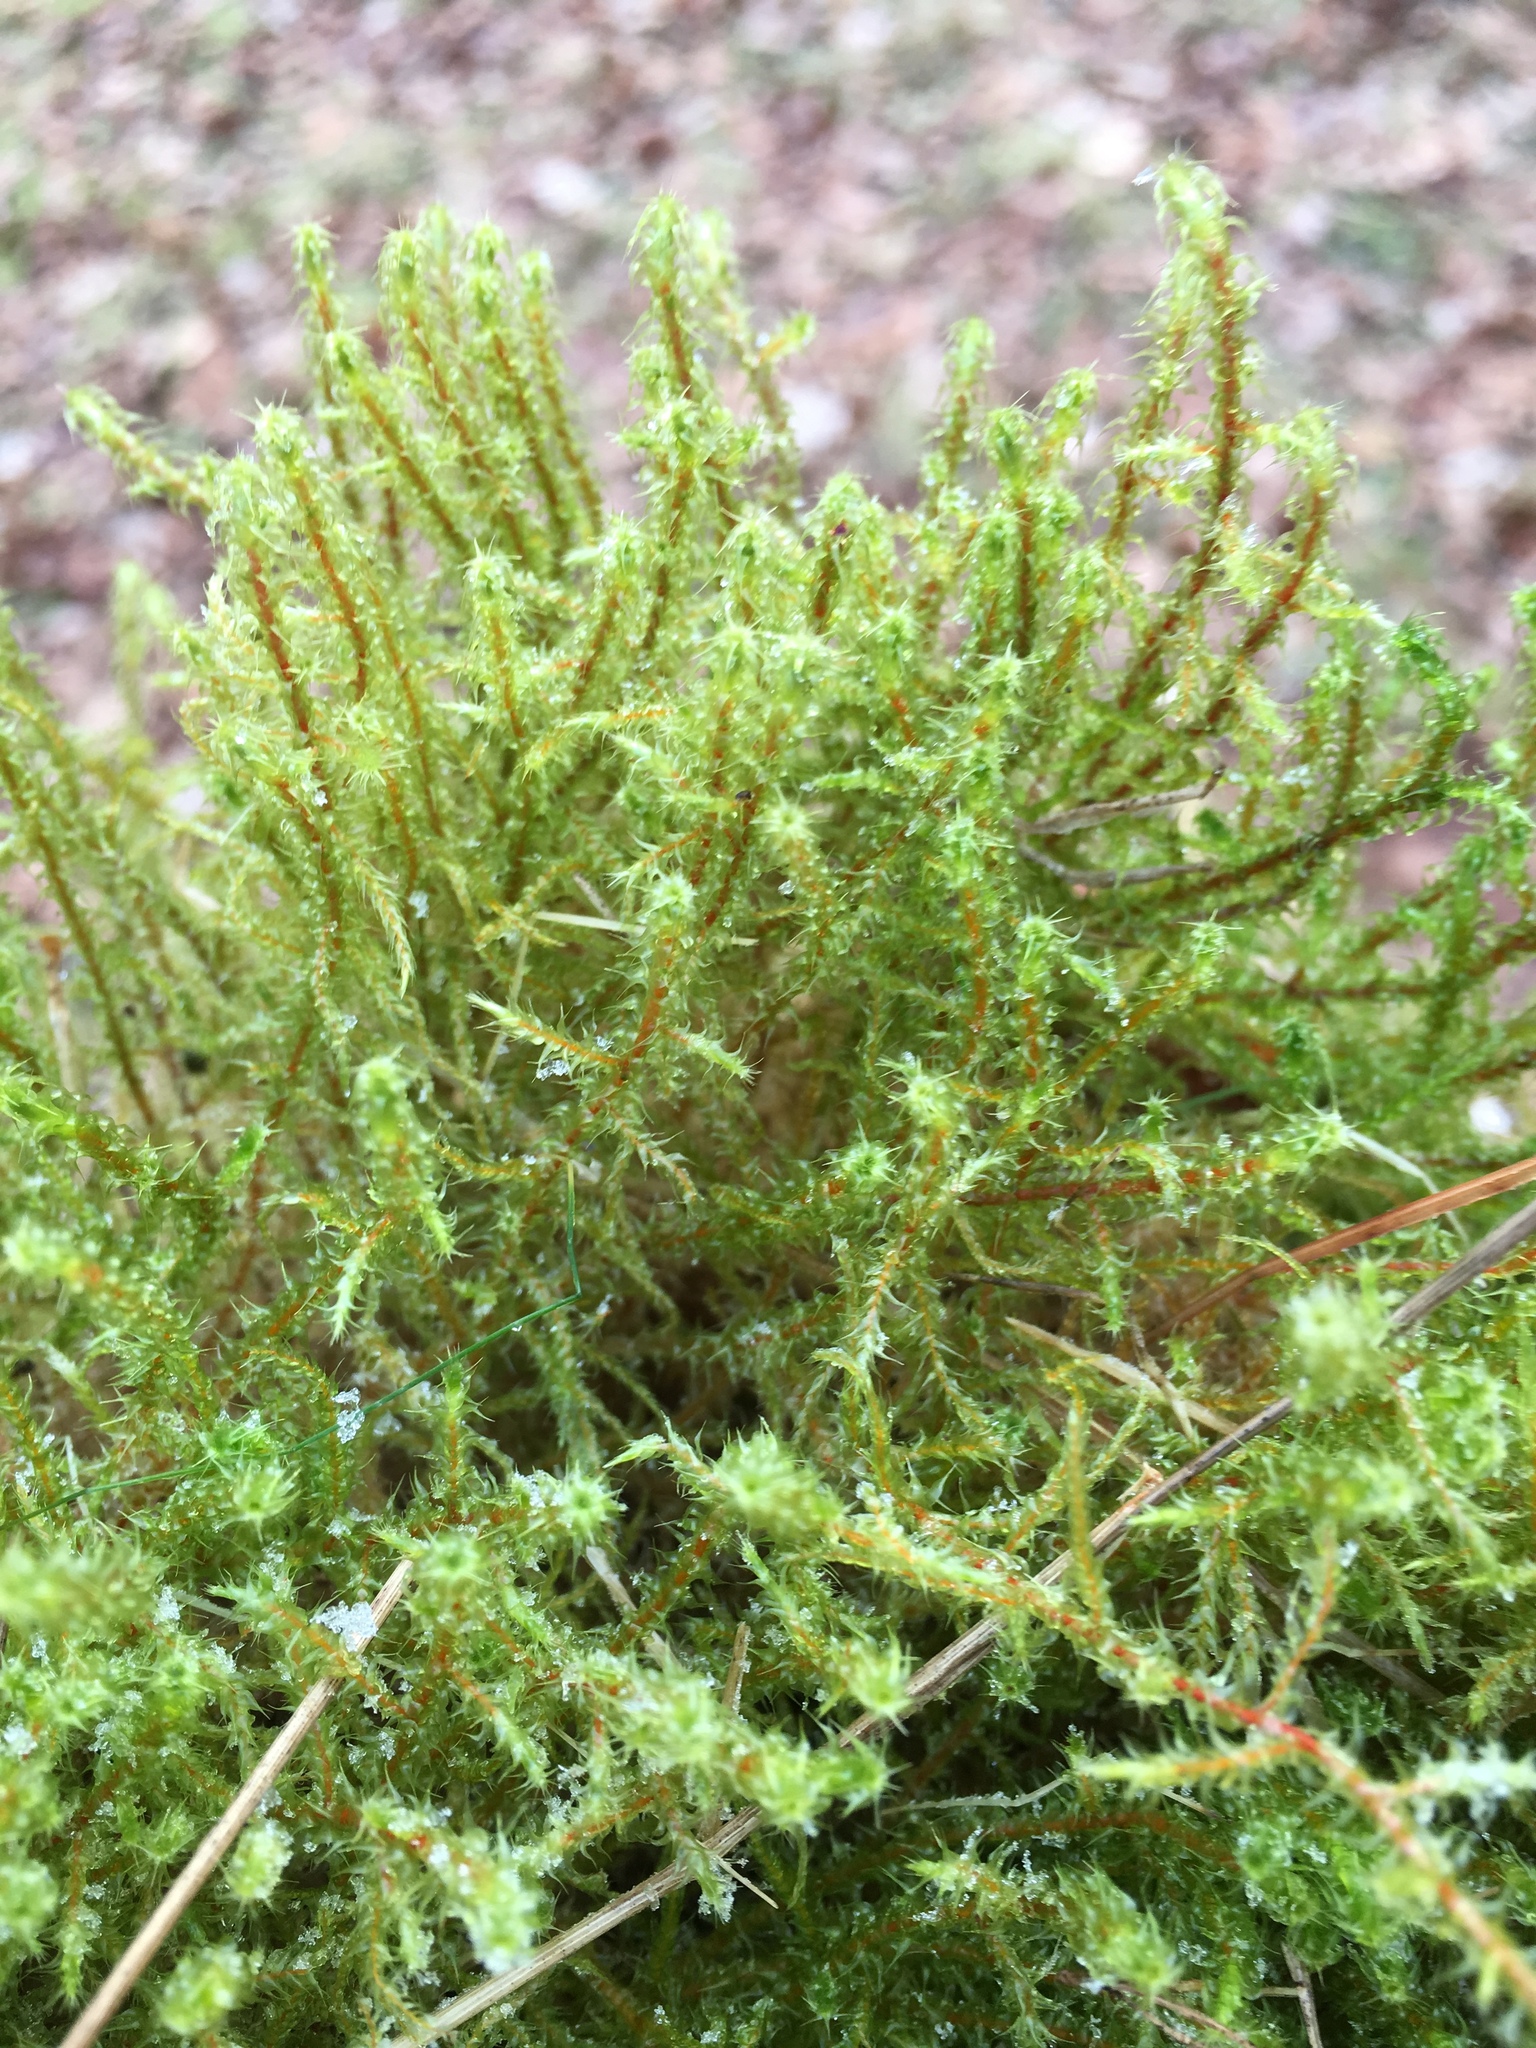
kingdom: Plantae
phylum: Bryophyta
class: Bryopsida
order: Hypnales
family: Hylocomiaceae
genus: Rhytidiadelphus
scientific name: Rhytidiadelphus squarrosus
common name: Springy turf-moss
